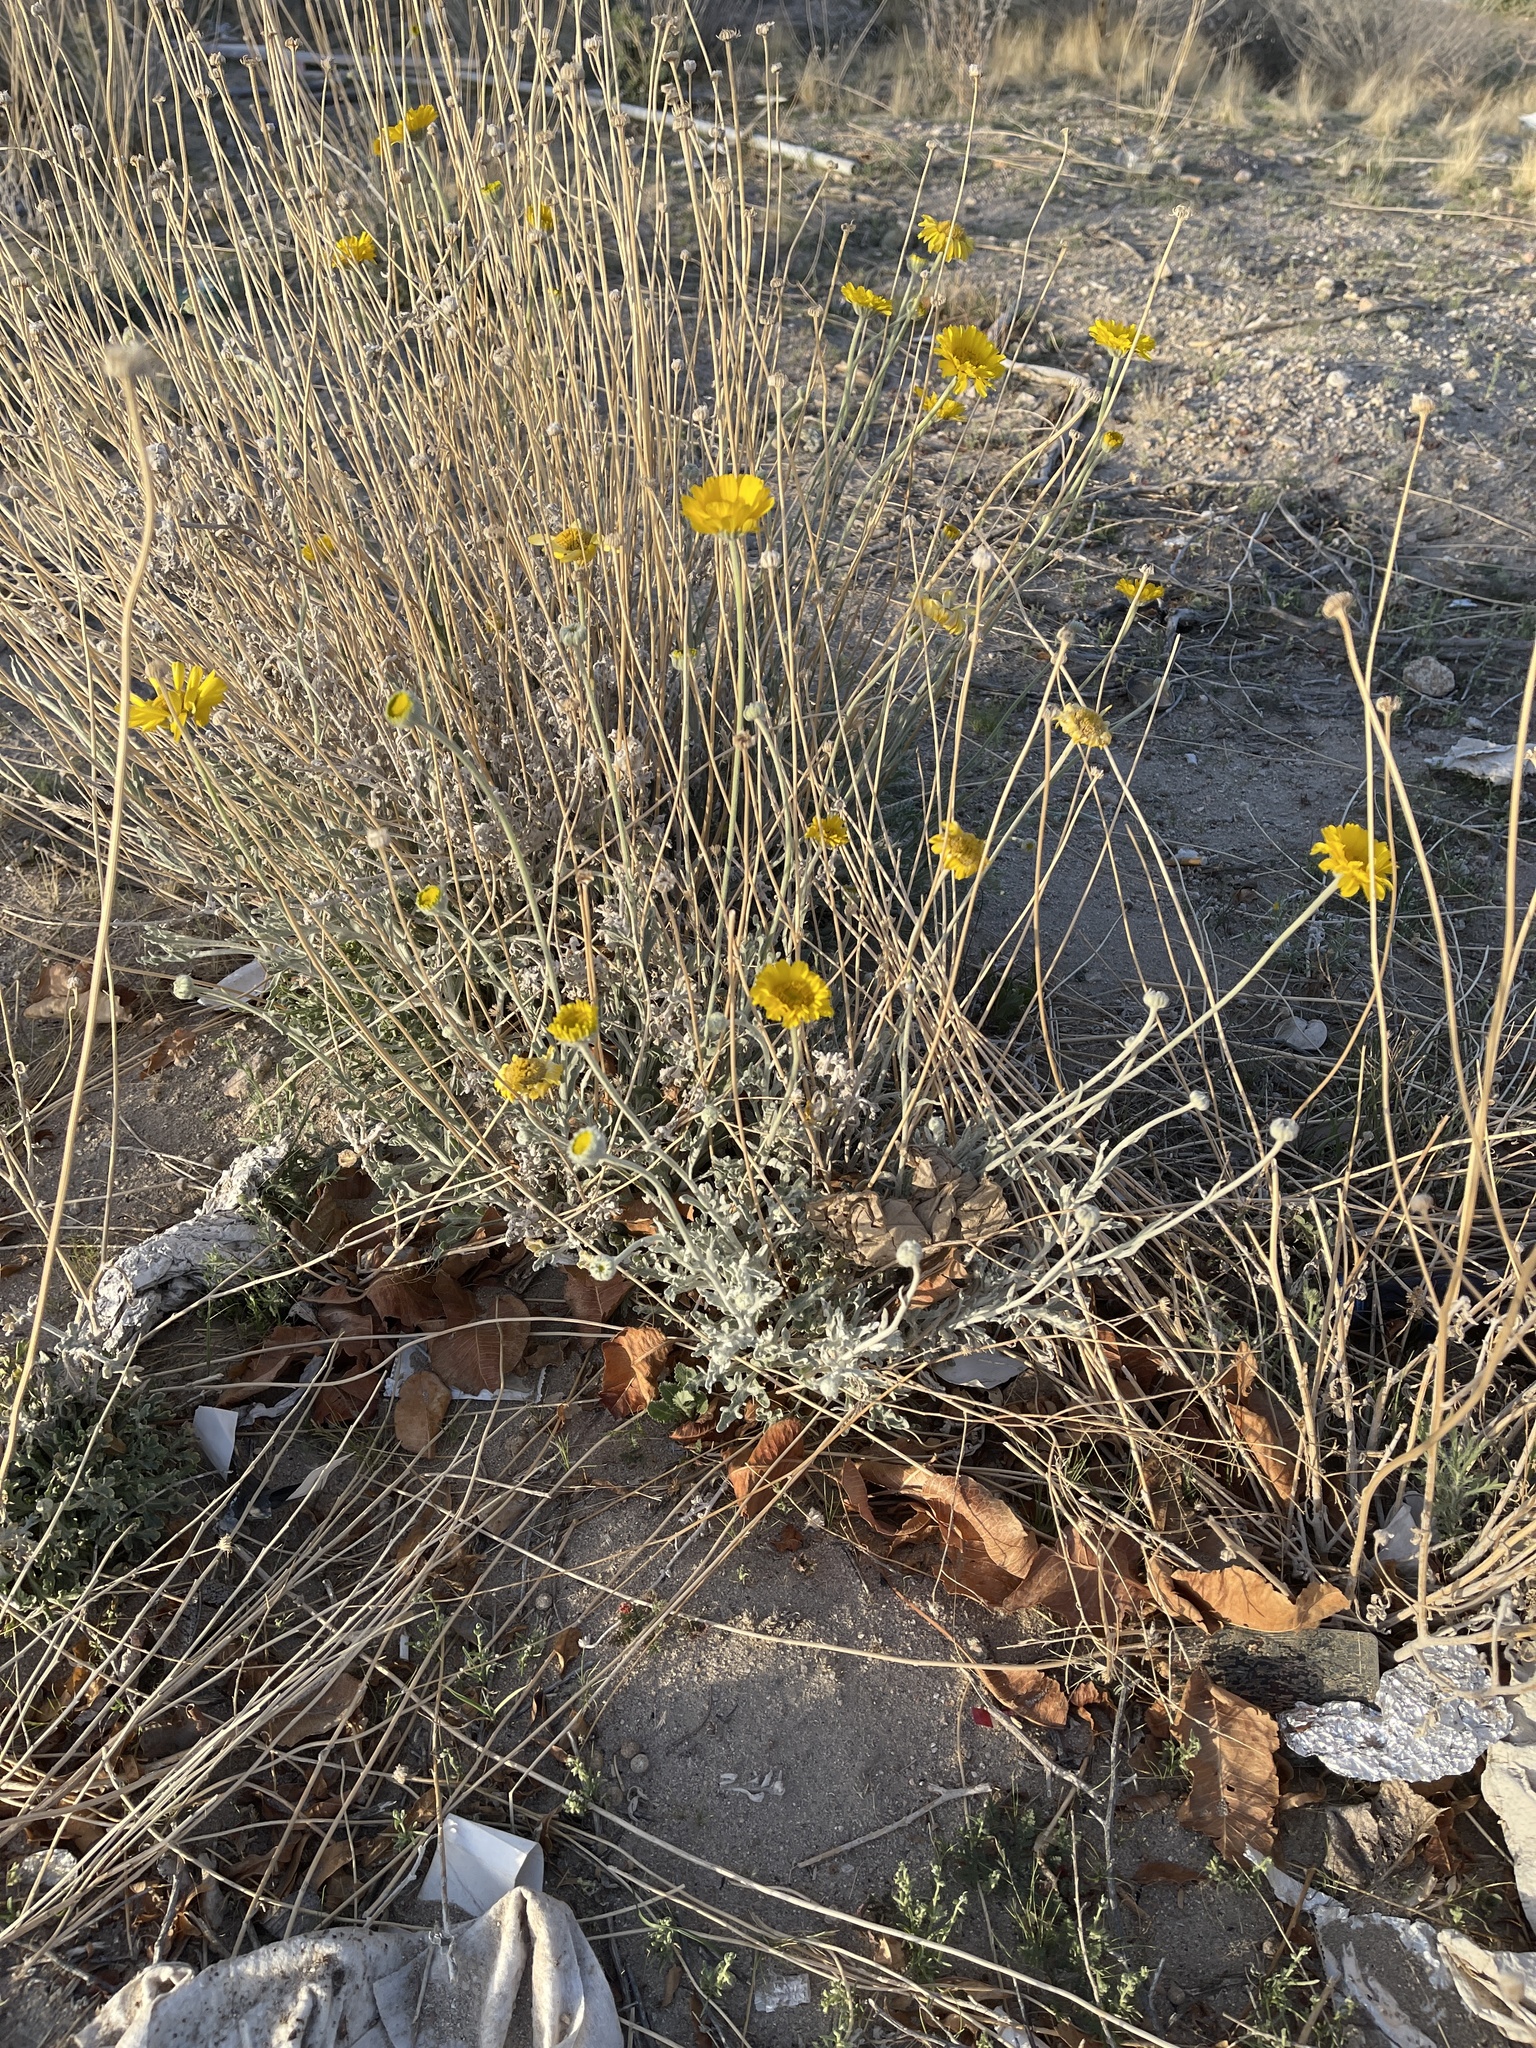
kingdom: Plantae
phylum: Tracheophyta
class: Magnoliopsida
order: Asterales
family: Asteraceae
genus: Baileya
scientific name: Baileya multiradiata
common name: Desert-marigold
